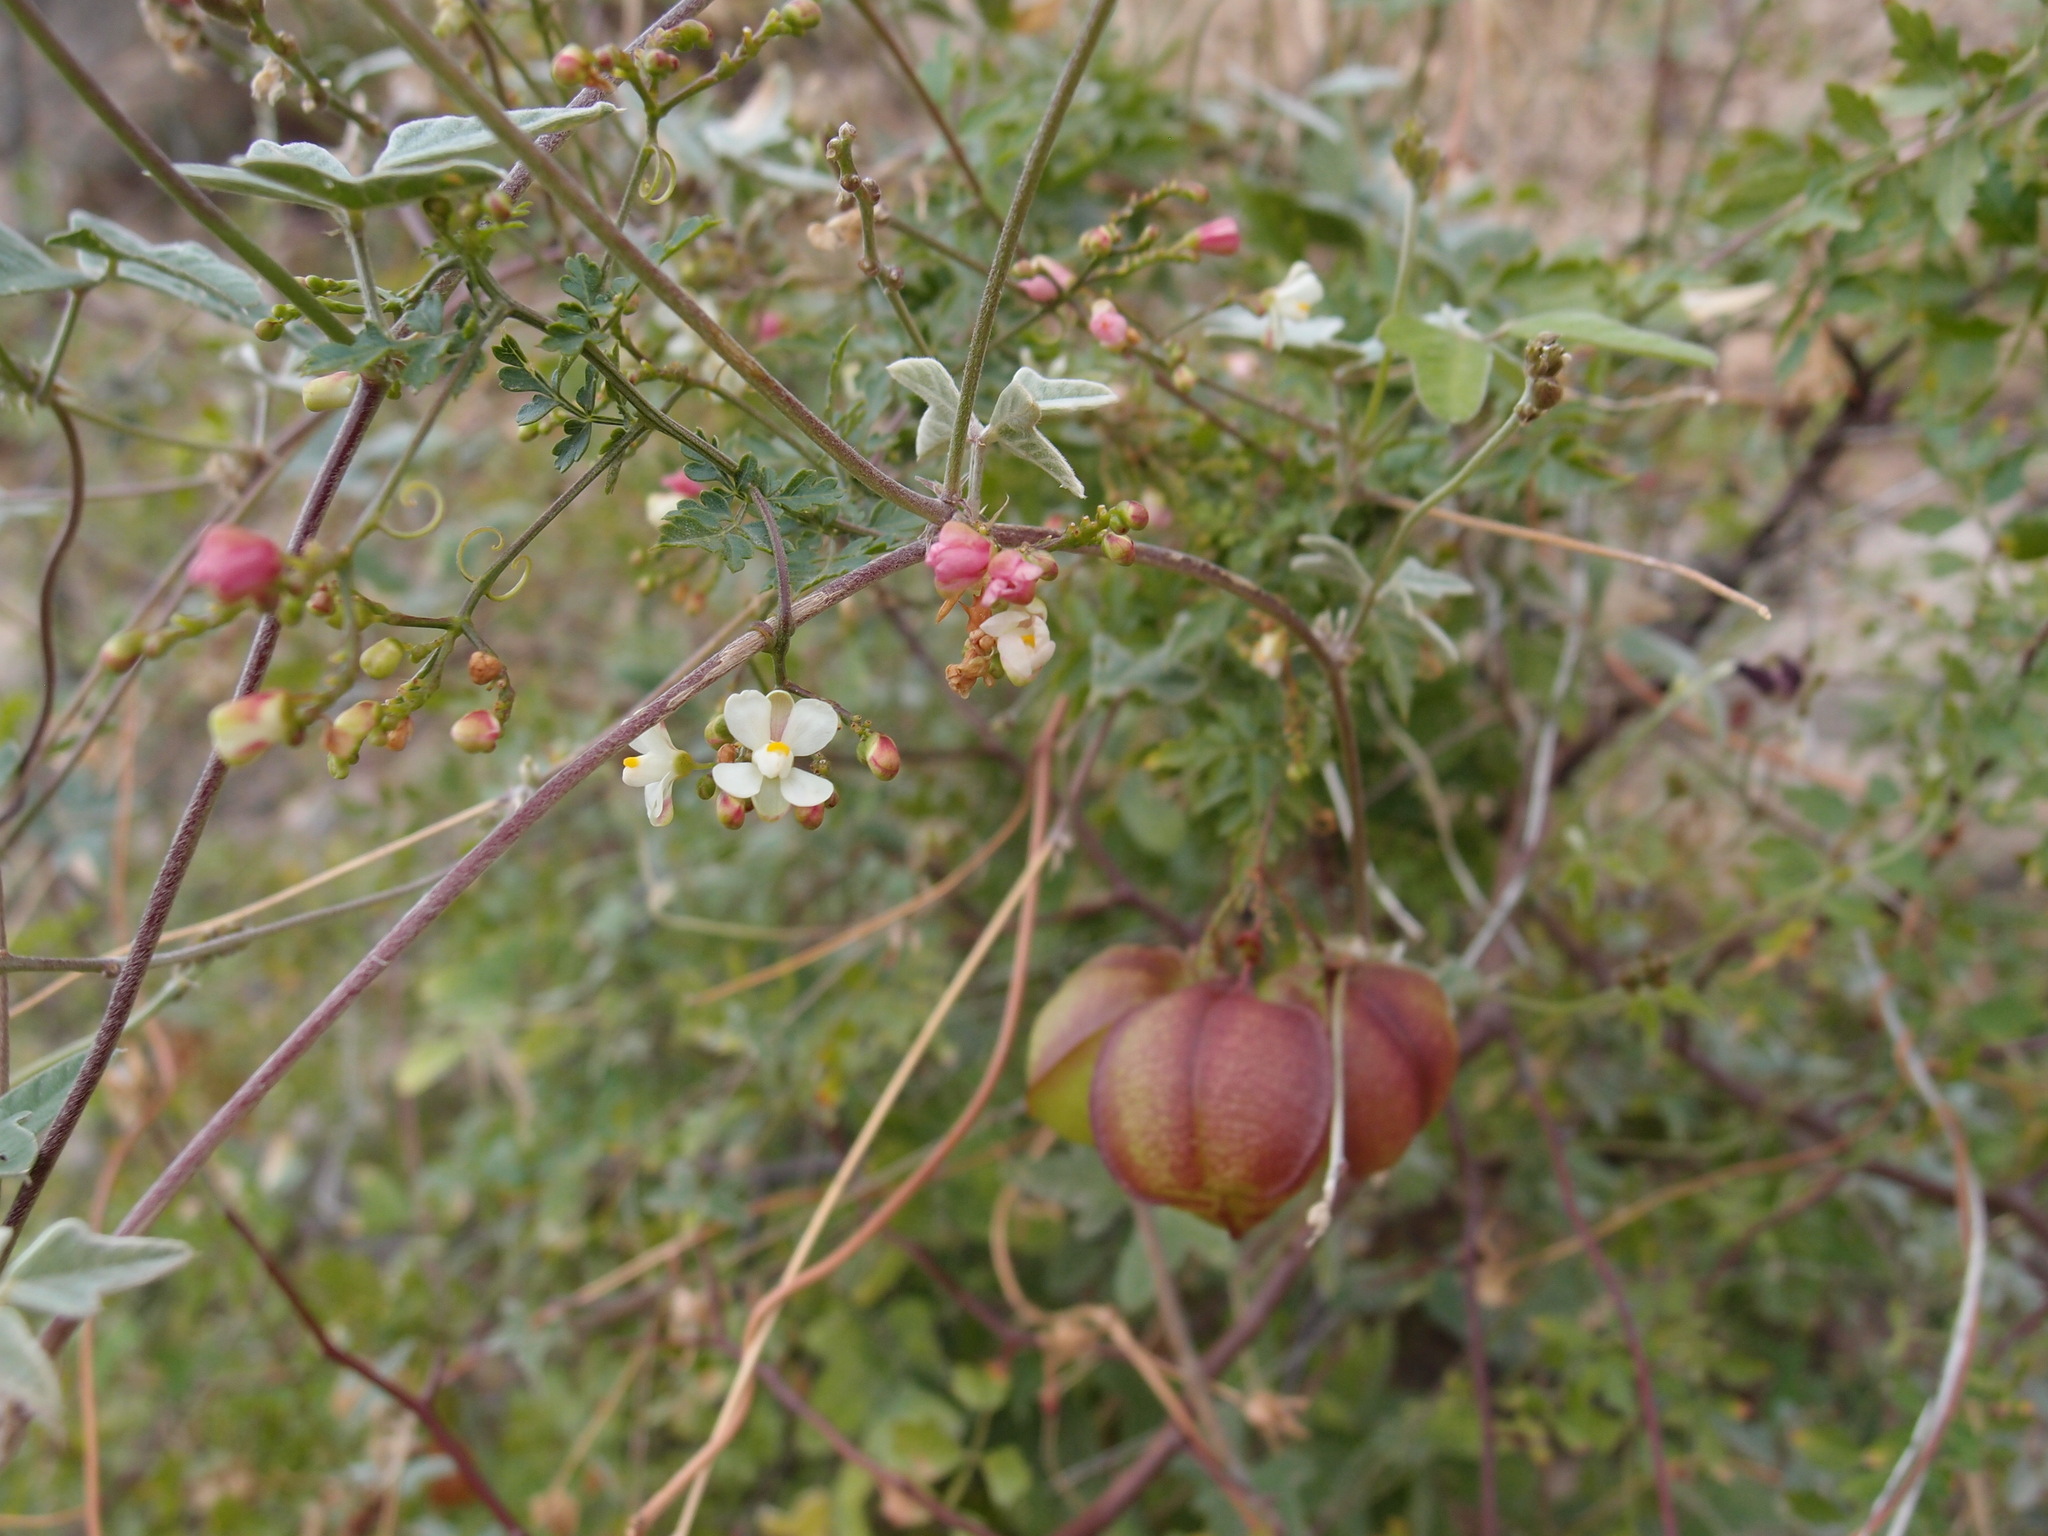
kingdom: Plantae
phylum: Tracheophyta
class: Magnoliopsida
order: Sapindales
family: Sapindaceae
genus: Cardiospermum
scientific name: Cardiospermum corindum
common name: Faux persil
